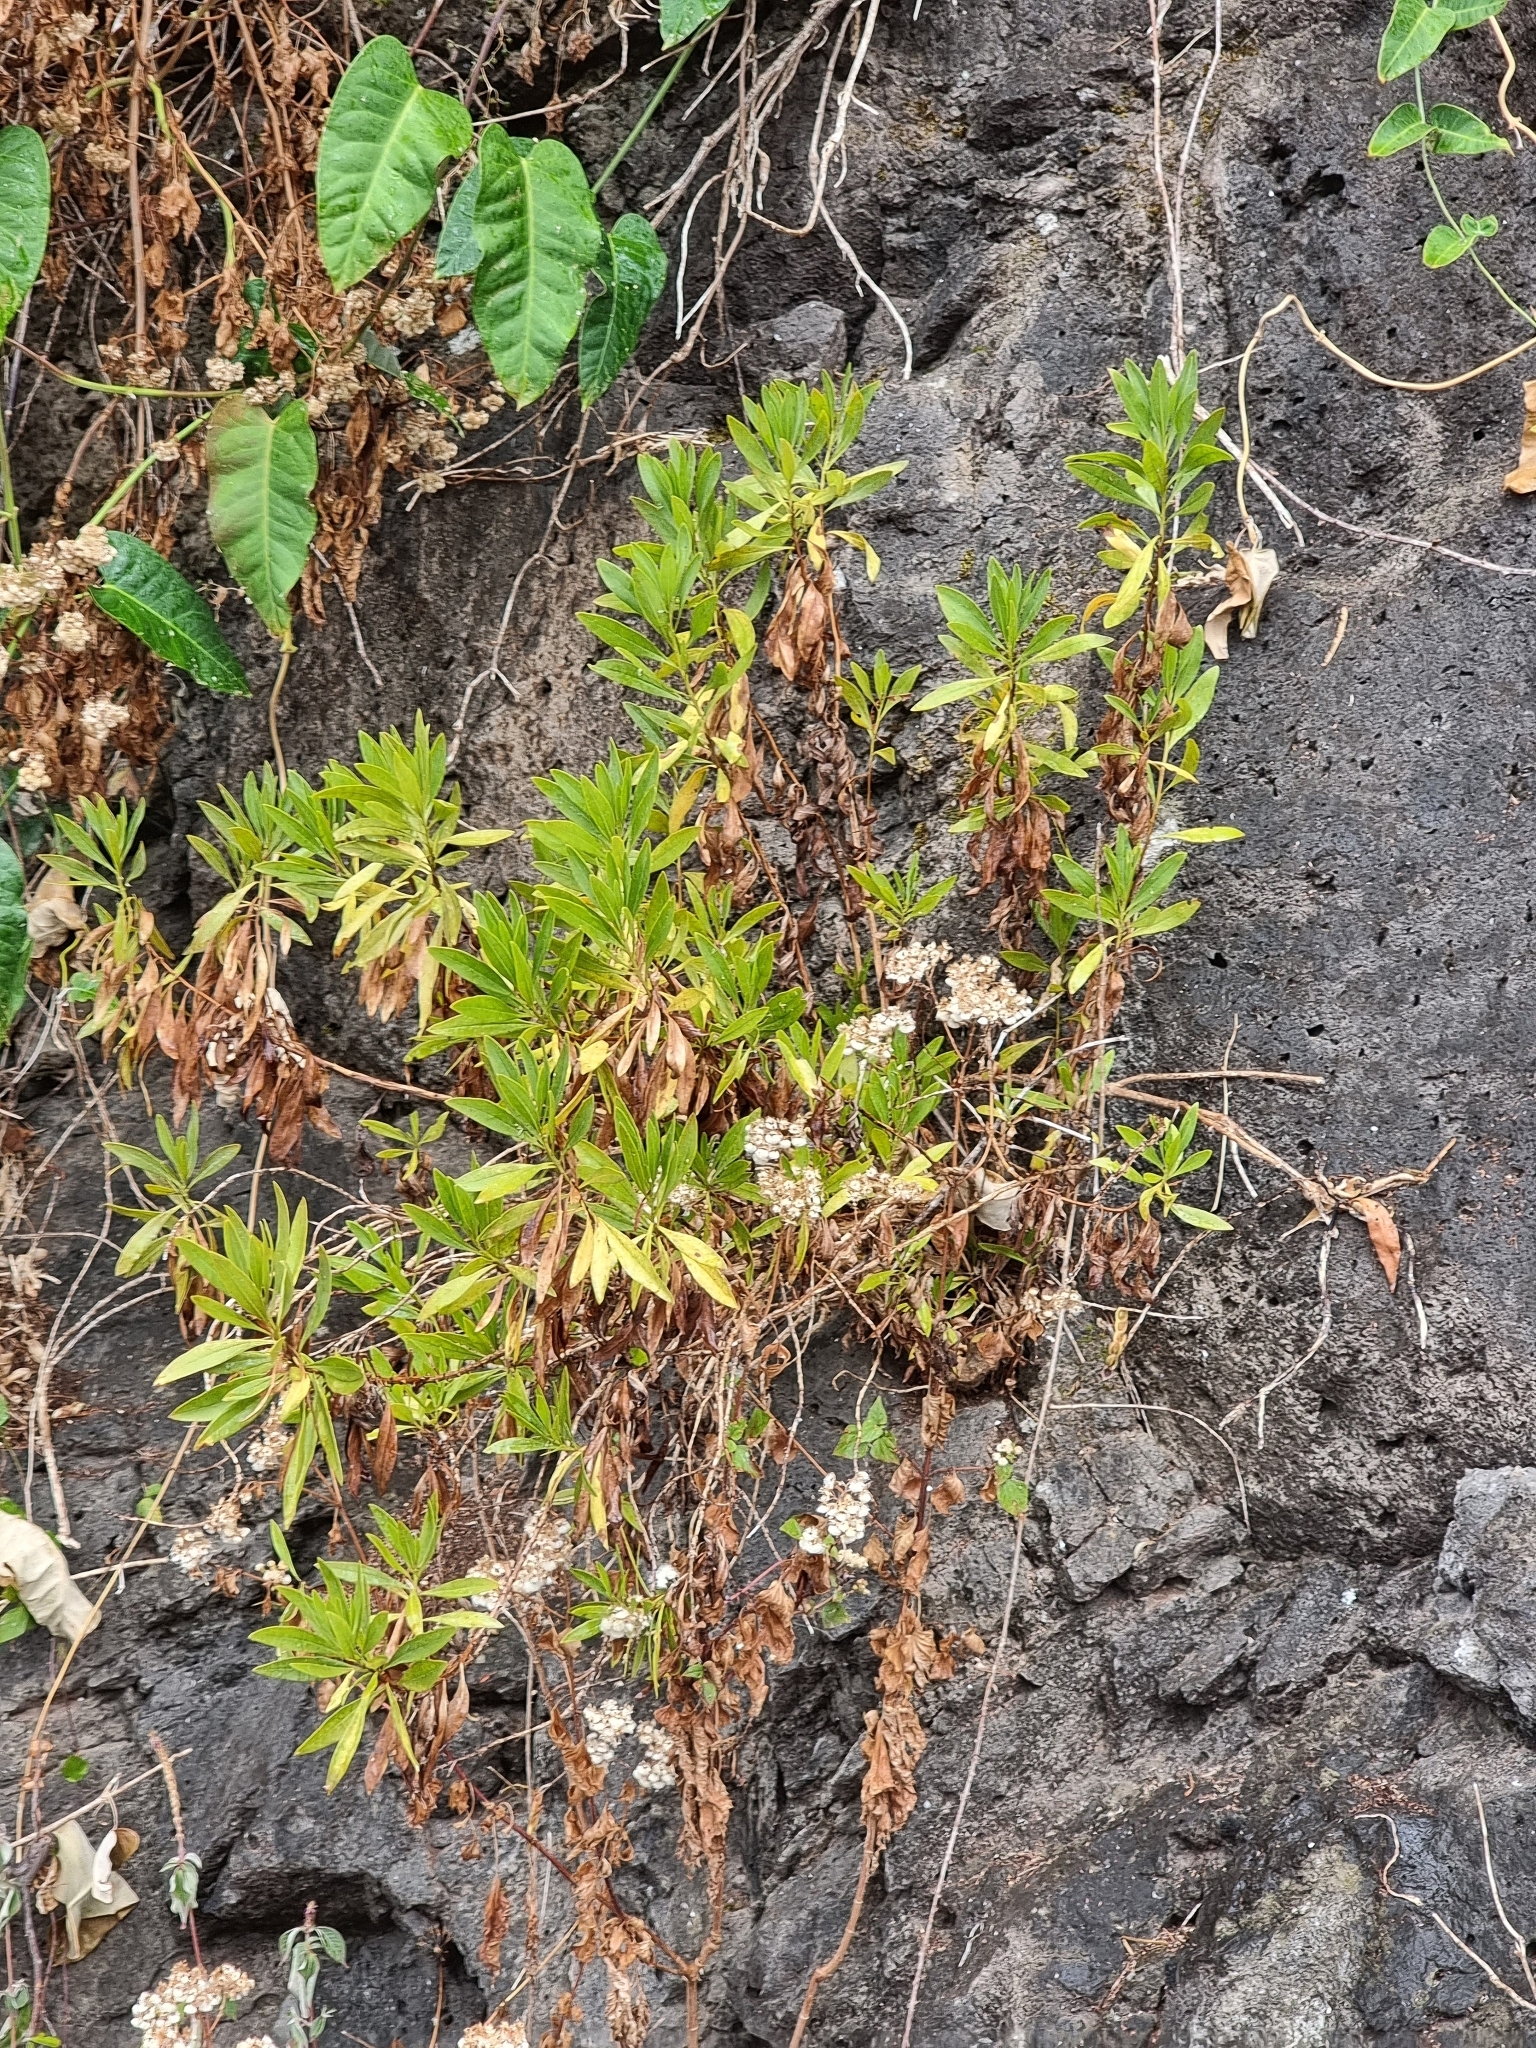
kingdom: Plantae
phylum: Tracheophyta
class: Magnoliopsida
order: Lamiales
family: Plantaginaceae
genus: Globularia
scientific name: Globularia salicina
